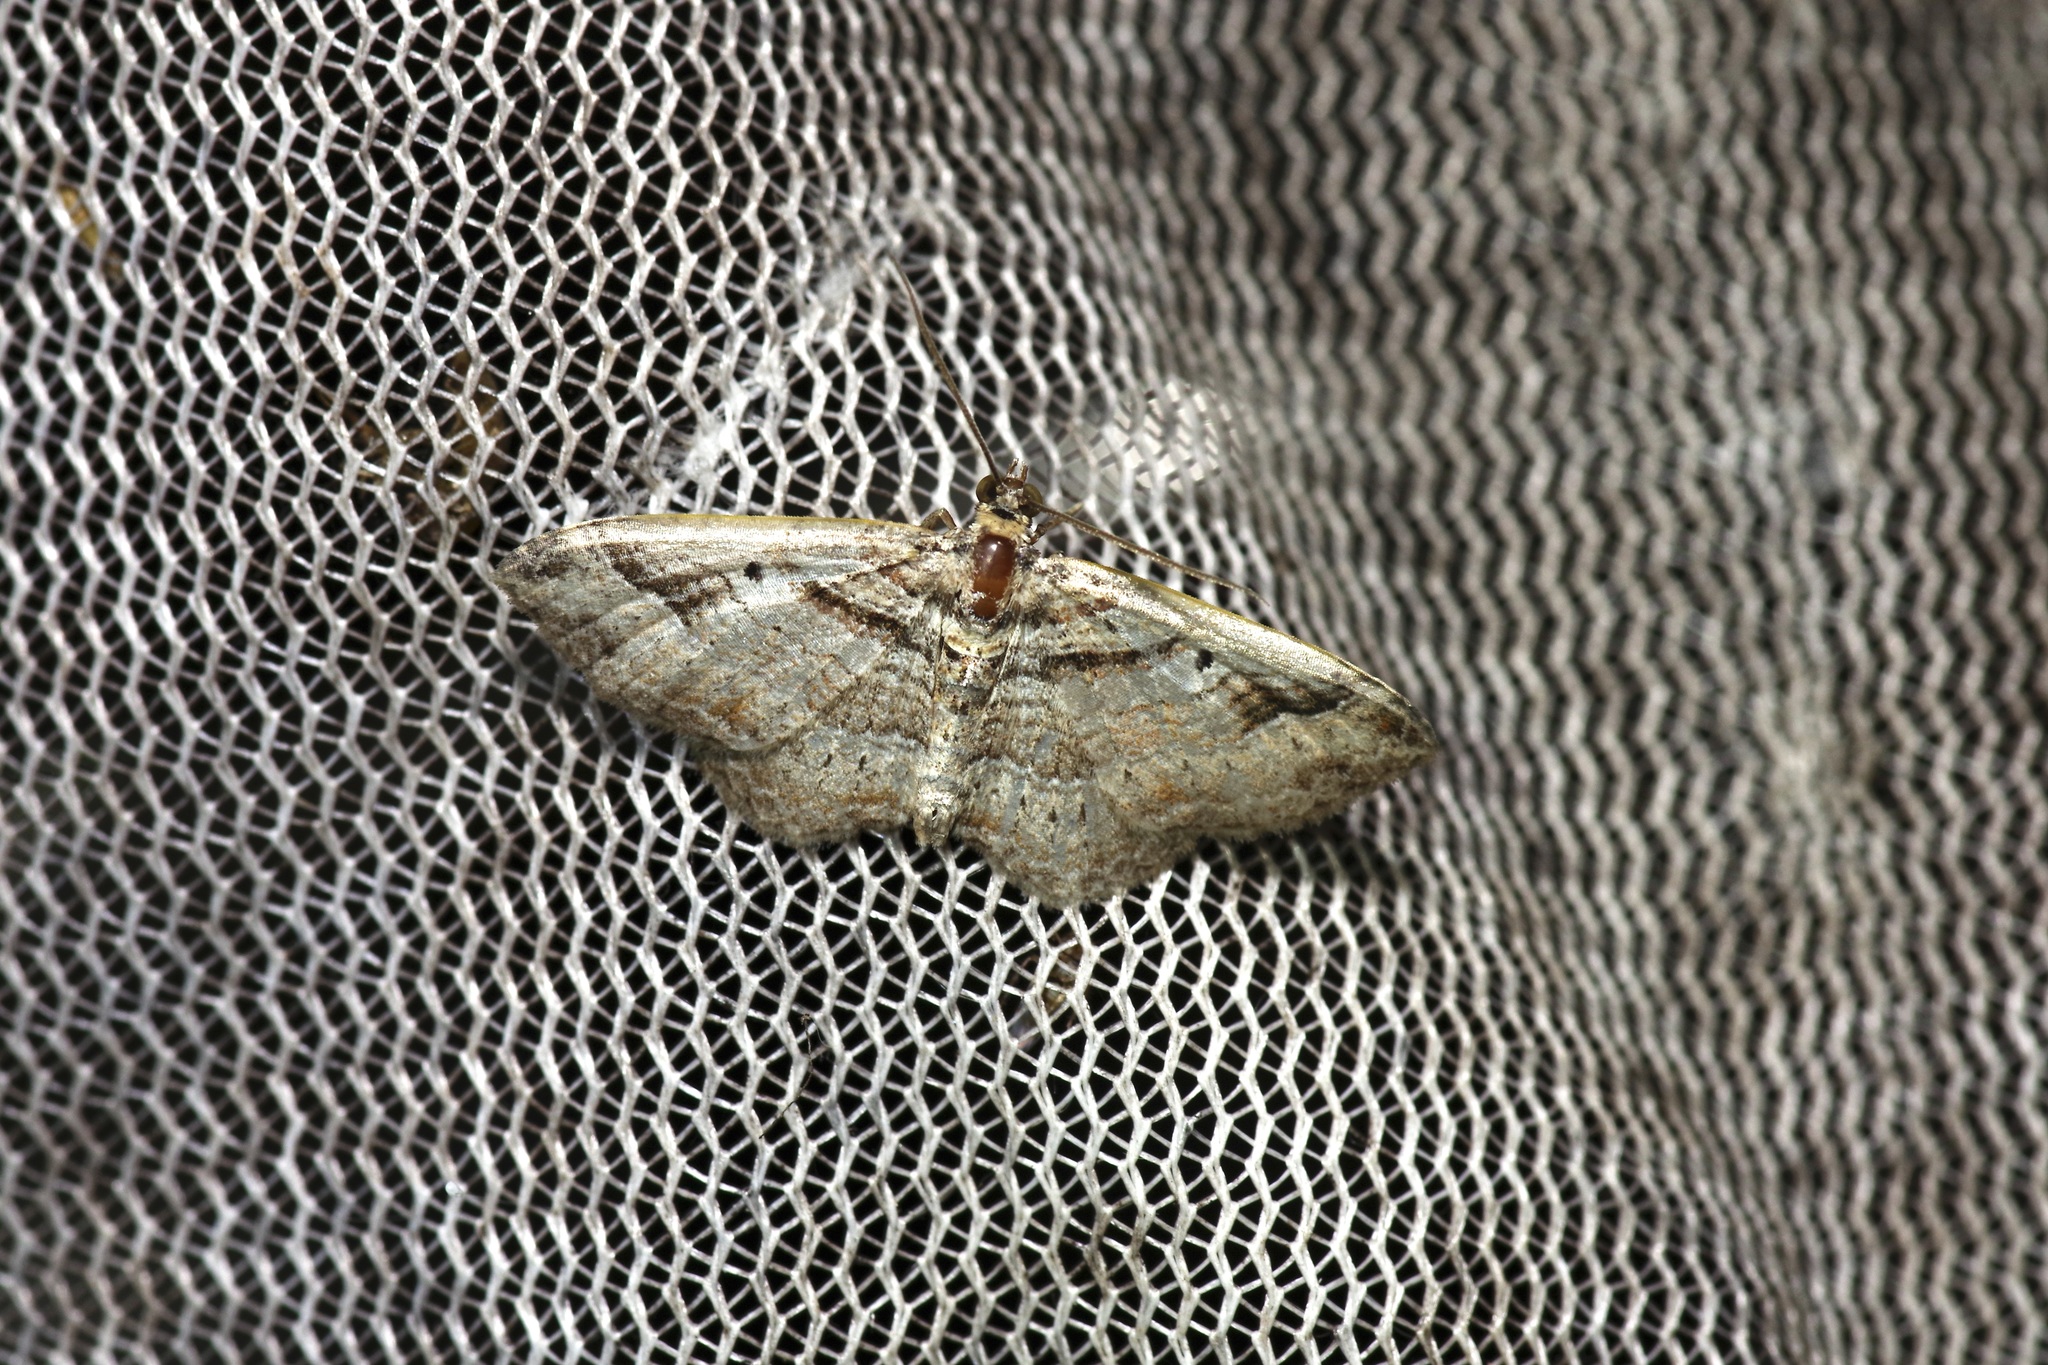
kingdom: Animalia
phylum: Arthropoda
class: Insecta
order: Lepidoptera
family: Geometridae
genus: Costaconvexa
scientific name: Costaconvexa centrostrigaria
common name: Bent-line carpet
